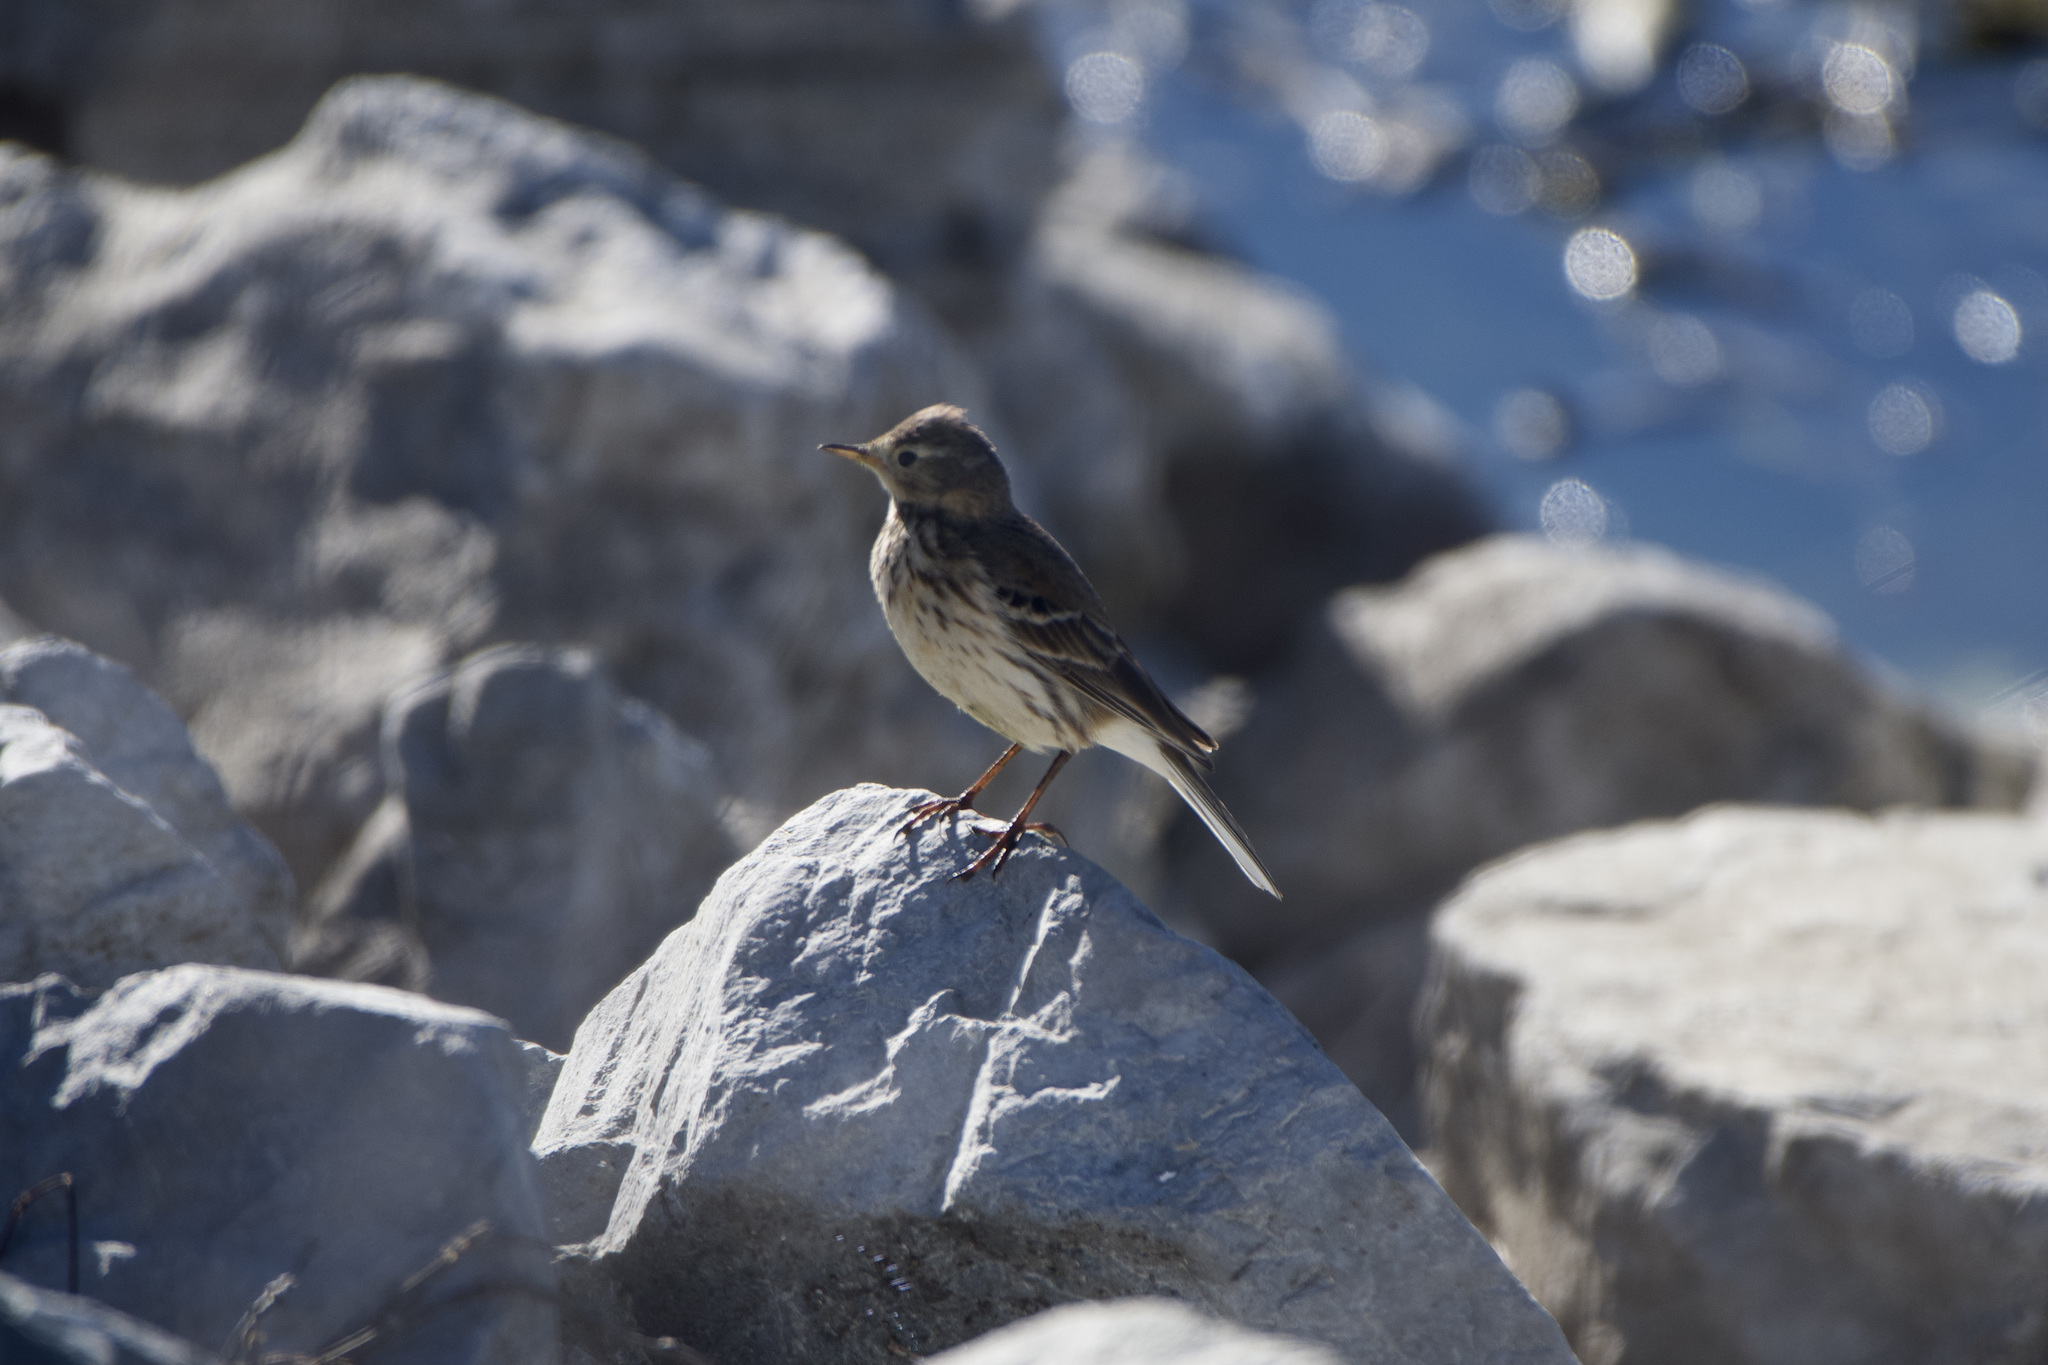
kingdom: Animalia
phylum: Chordata
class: Aves
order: Passeriformes
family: Motacillidae
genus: Anthus
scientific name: Anthus rubescens
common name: Buff-bellied pipit
